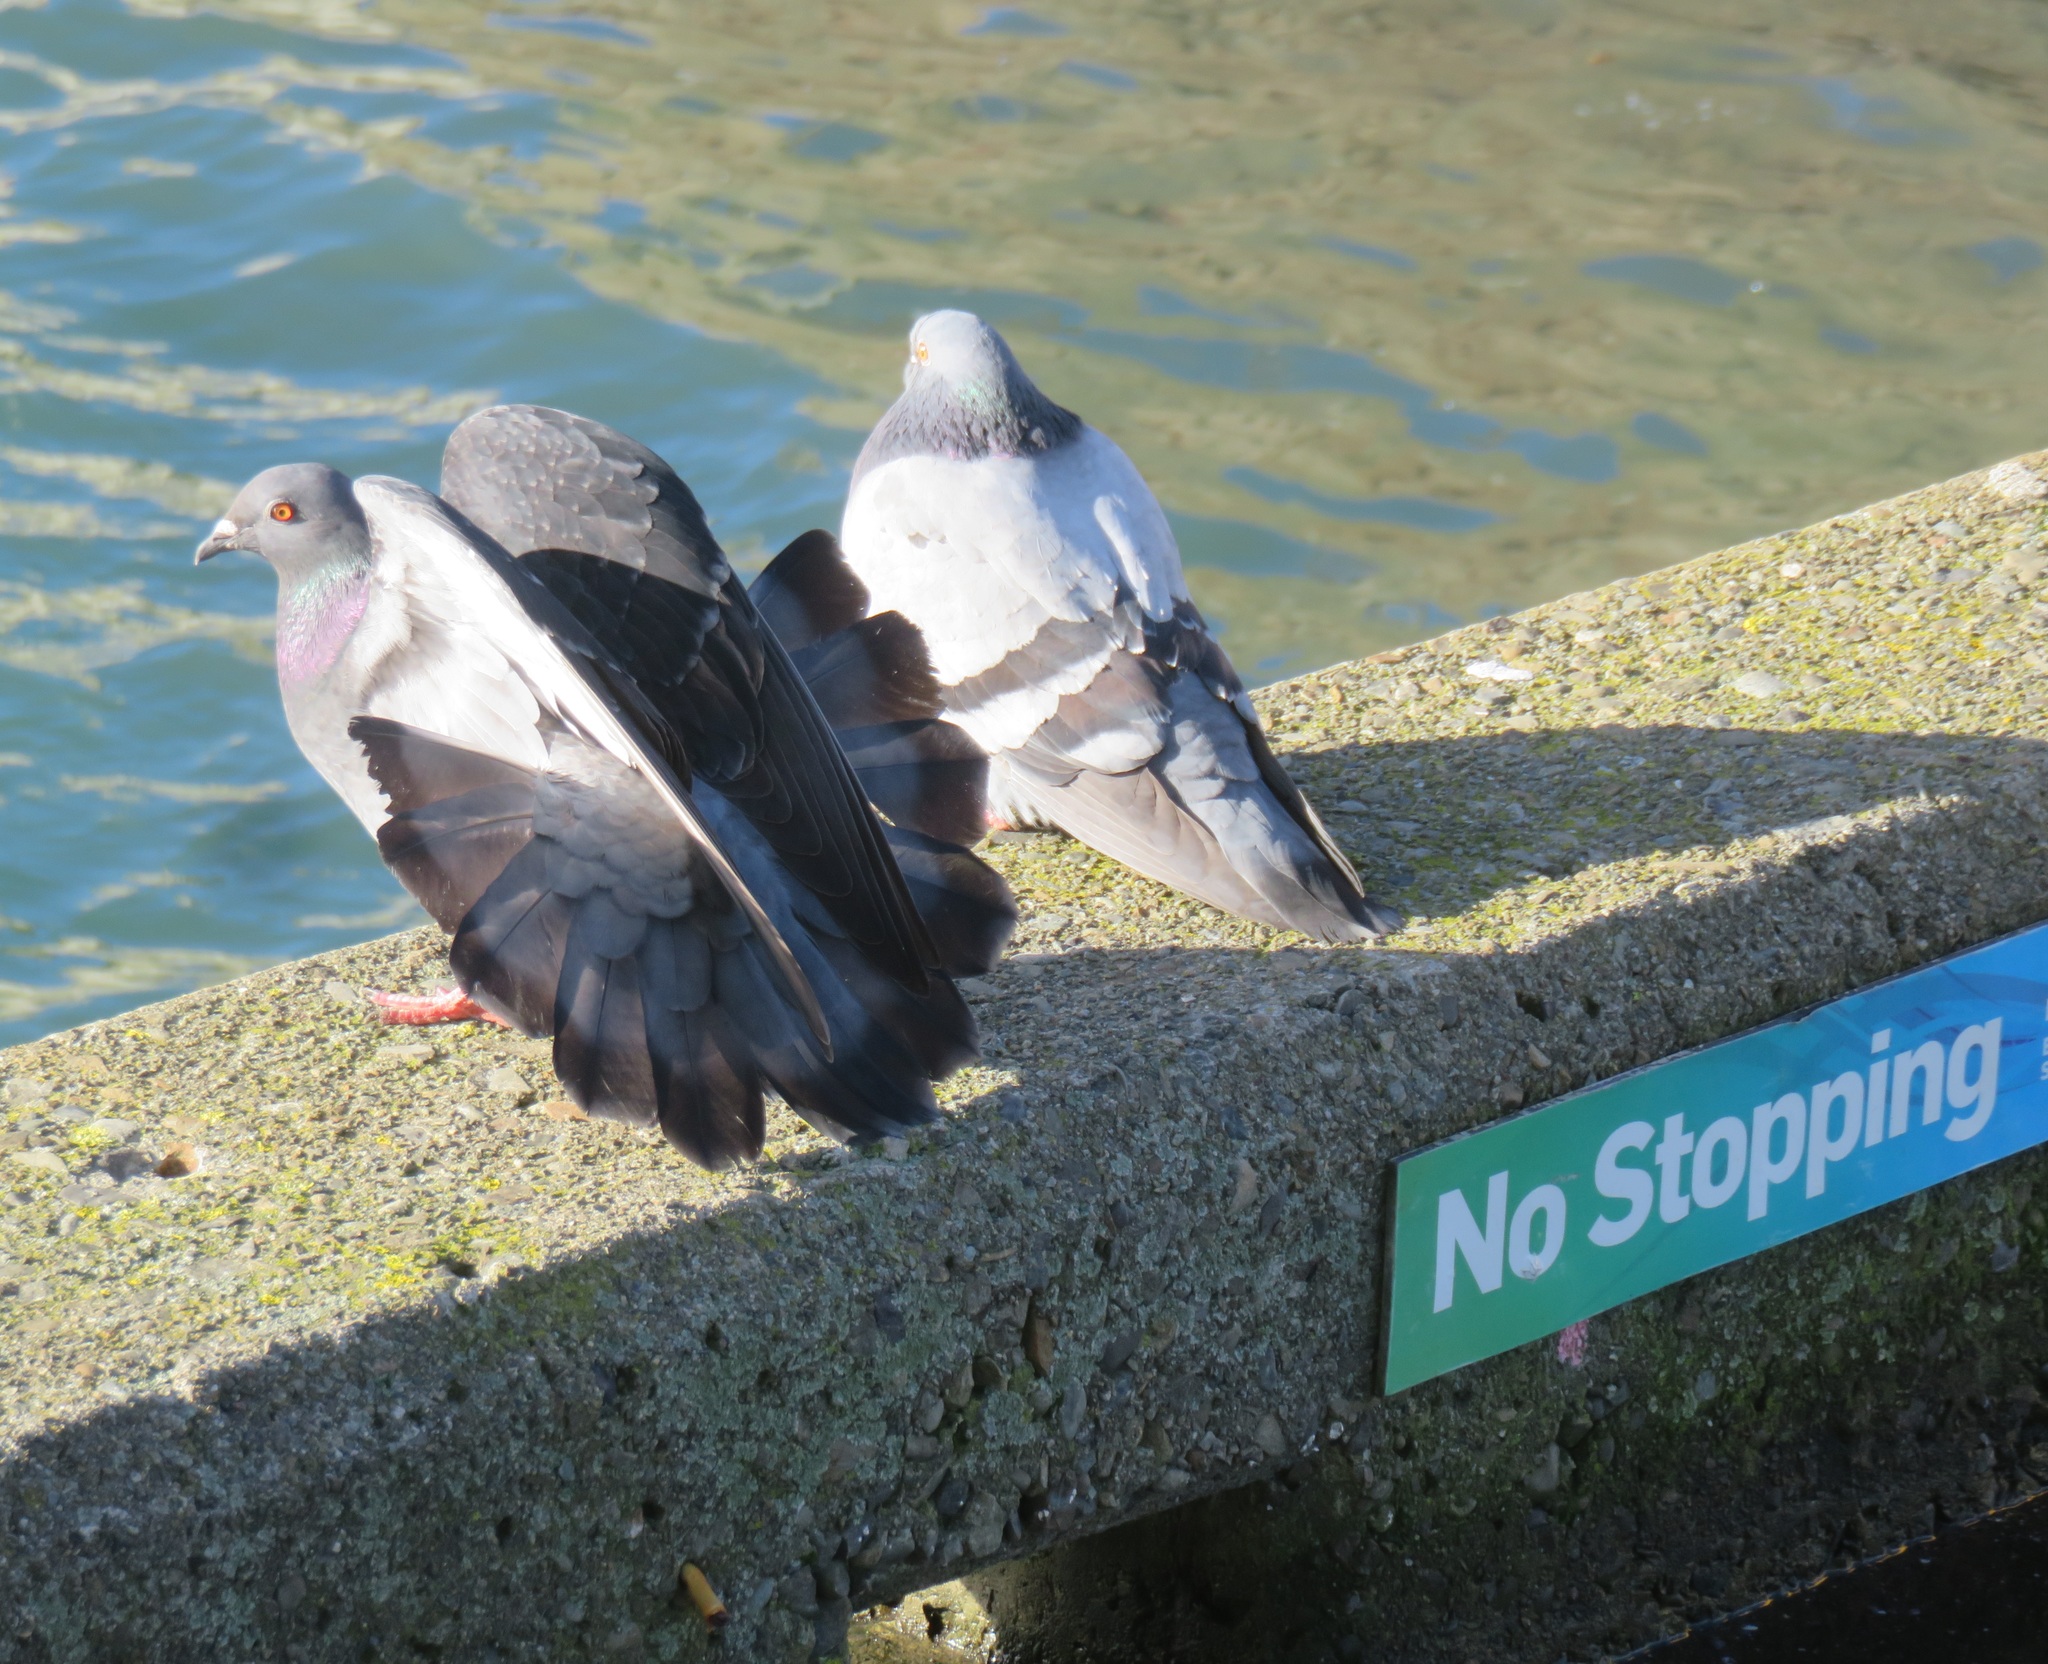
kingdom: Animalia
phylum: Chordata
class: Aves
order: Columbiformes
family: Columbidae
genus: Columba
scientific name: Columba livia
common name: Rock pigeon
